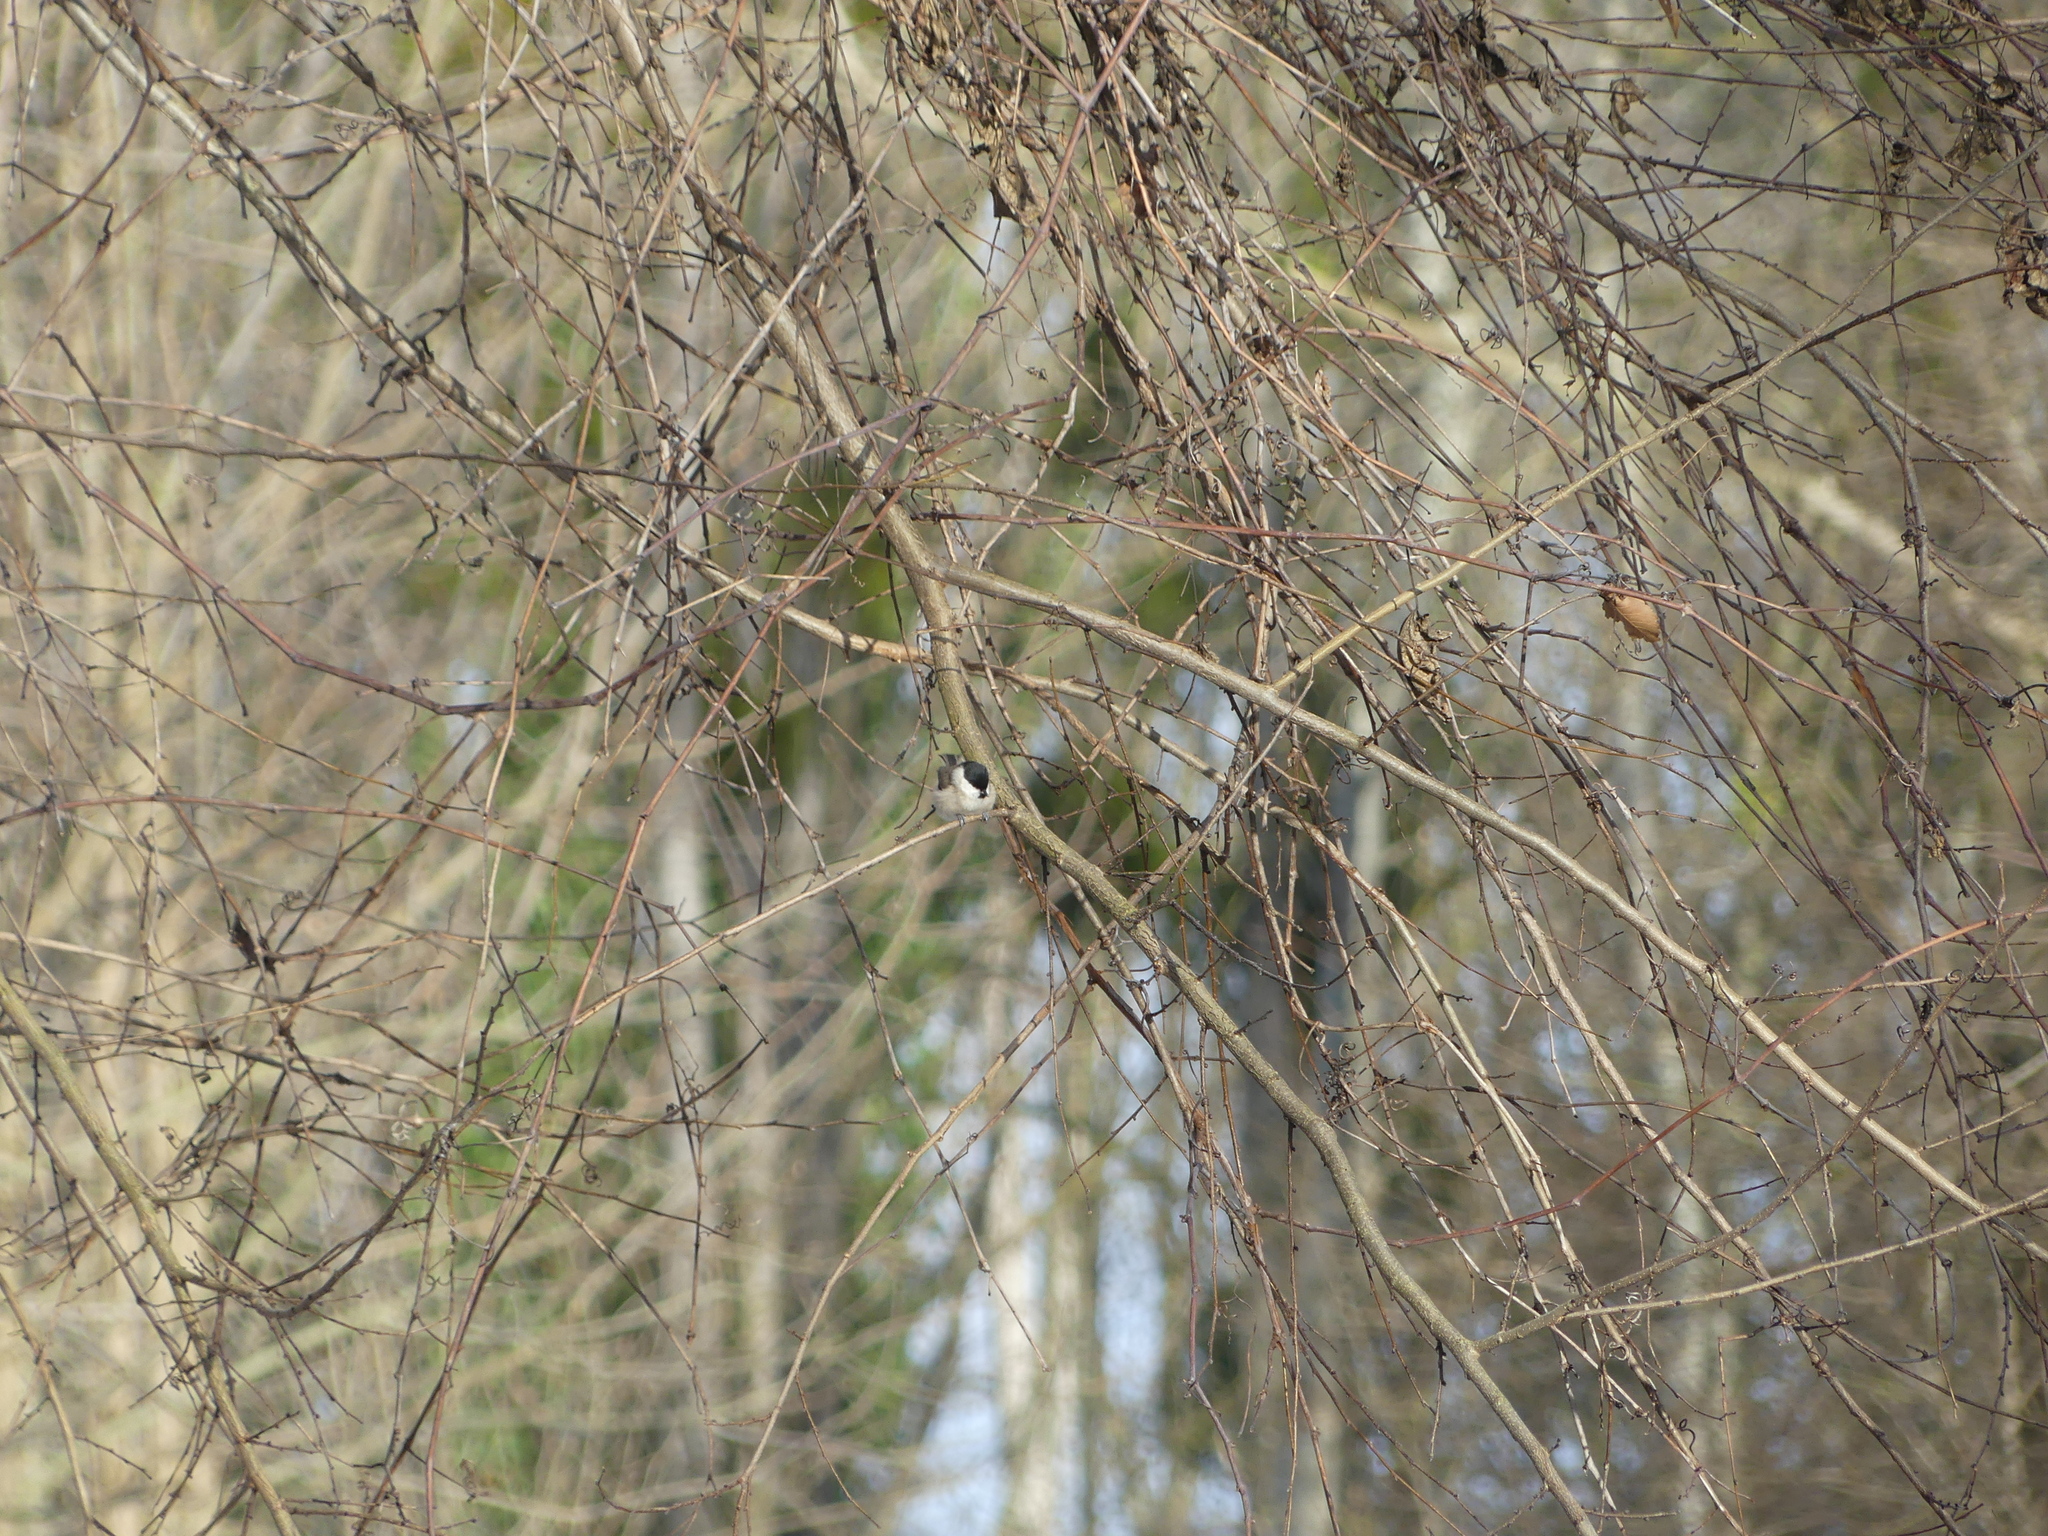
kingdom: Animalia
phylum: Chordata
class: Aves
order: Passeriformes
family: Paridae
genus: Poecile
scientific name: Poecile palustris
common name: Marsh tit
